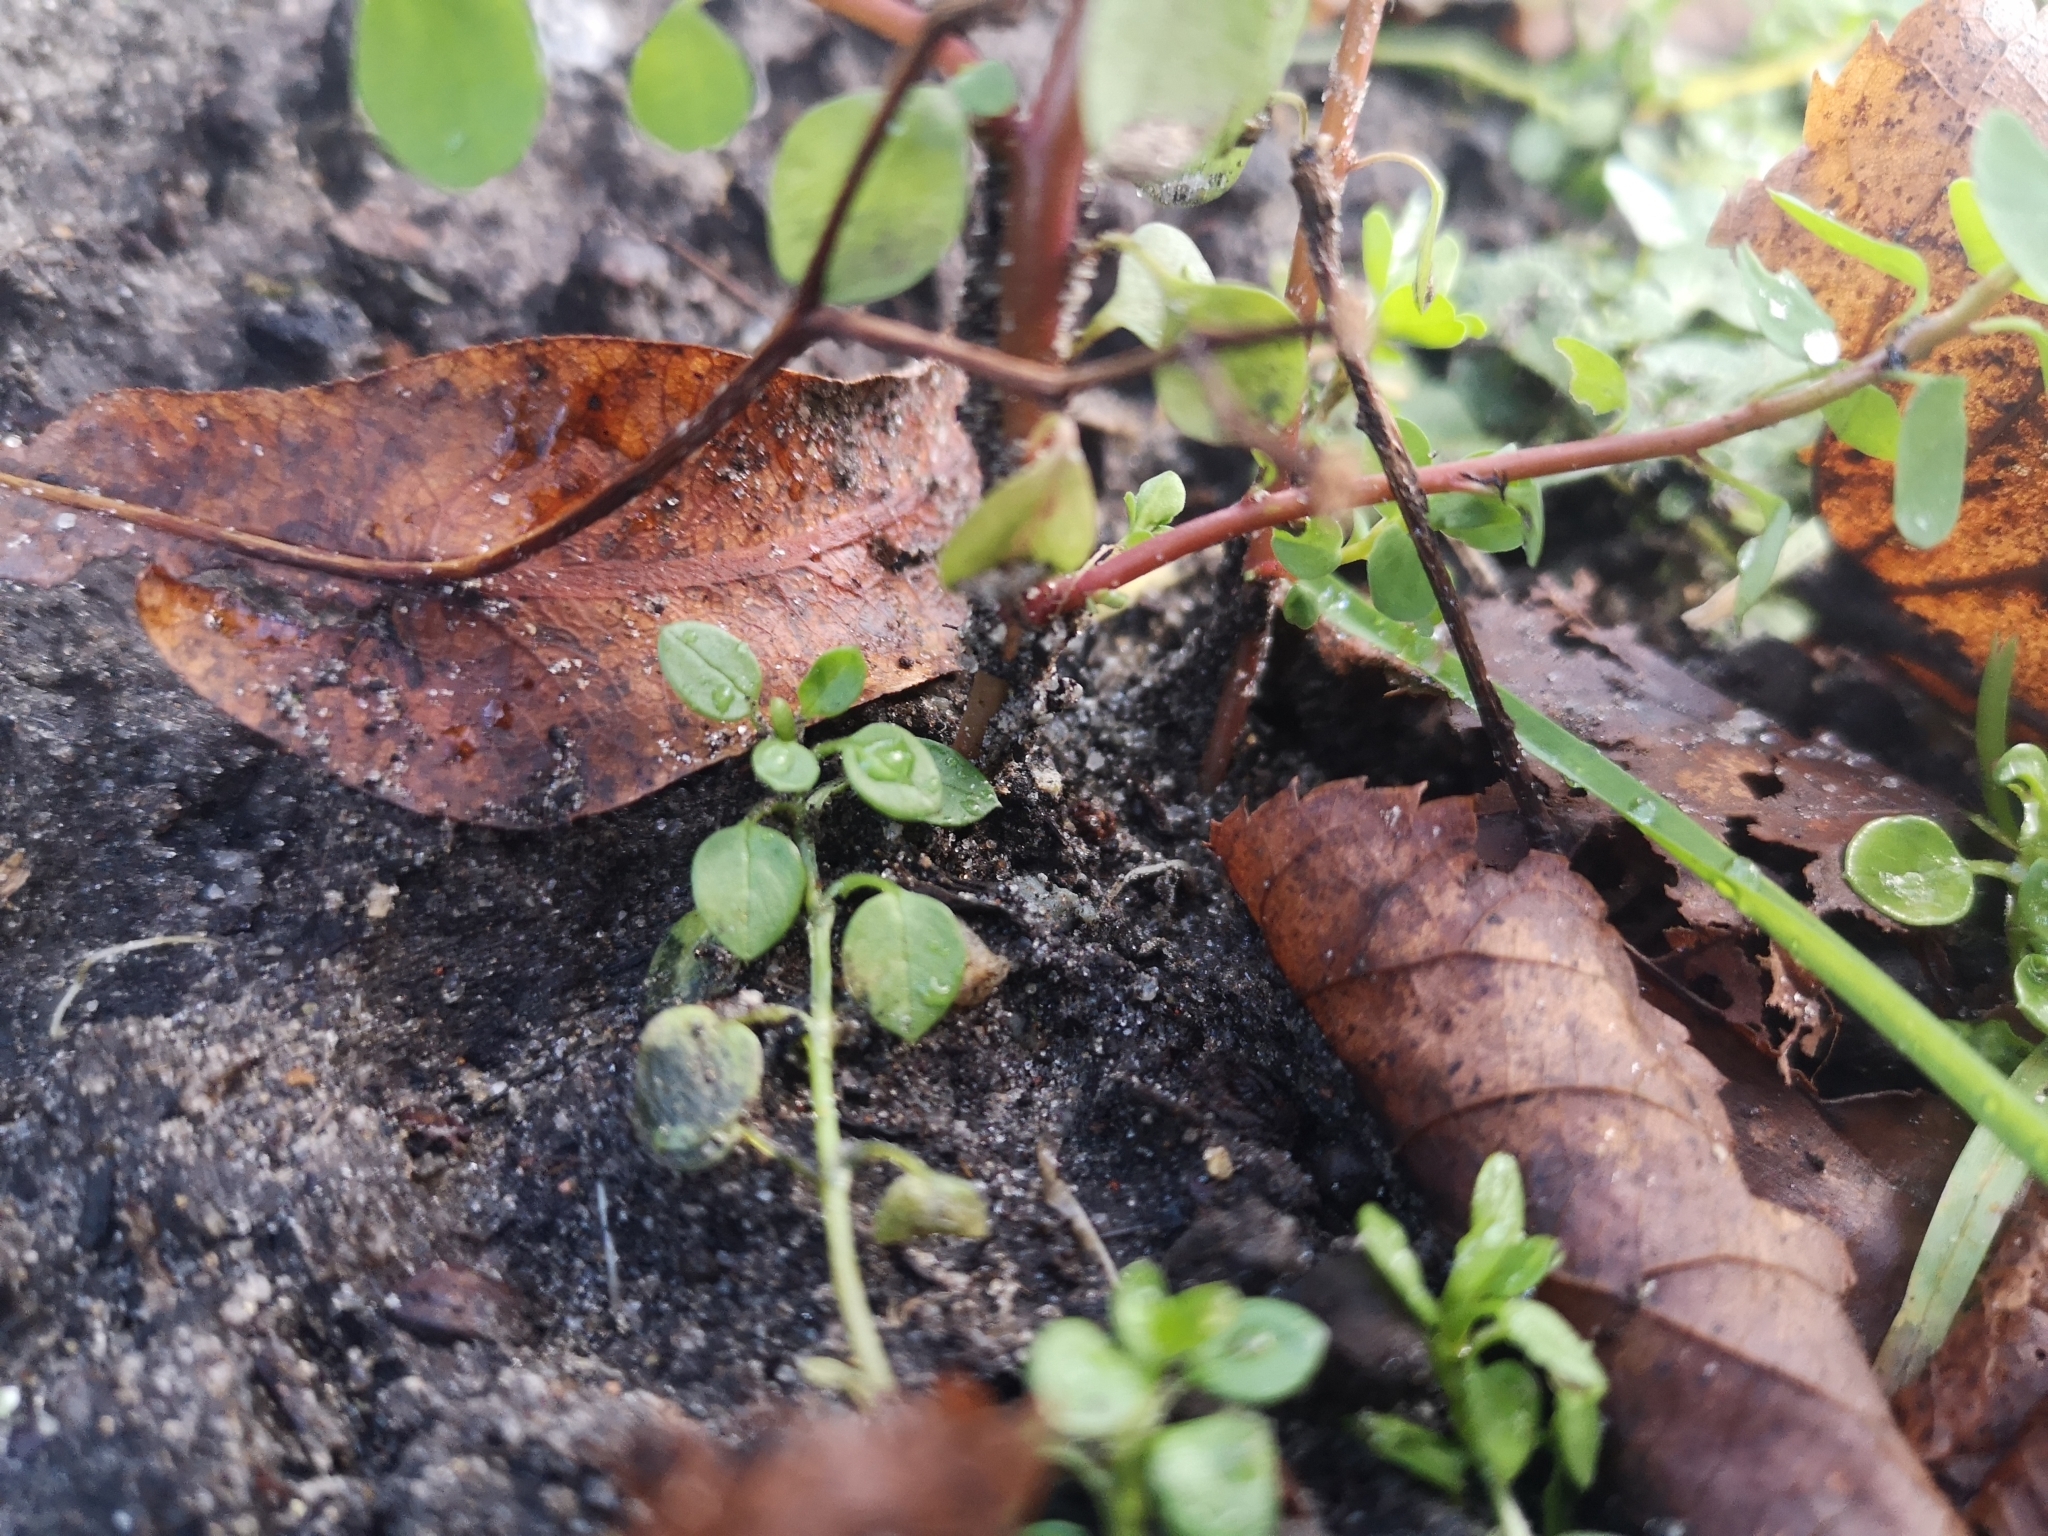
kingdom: Plantae
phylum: Tracheophyta
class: Magnoliopsida
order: Malpighiales
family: Euphorbiaceae
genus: Euphorbia
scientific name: Euphorbia peplus
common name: Petty spurge
